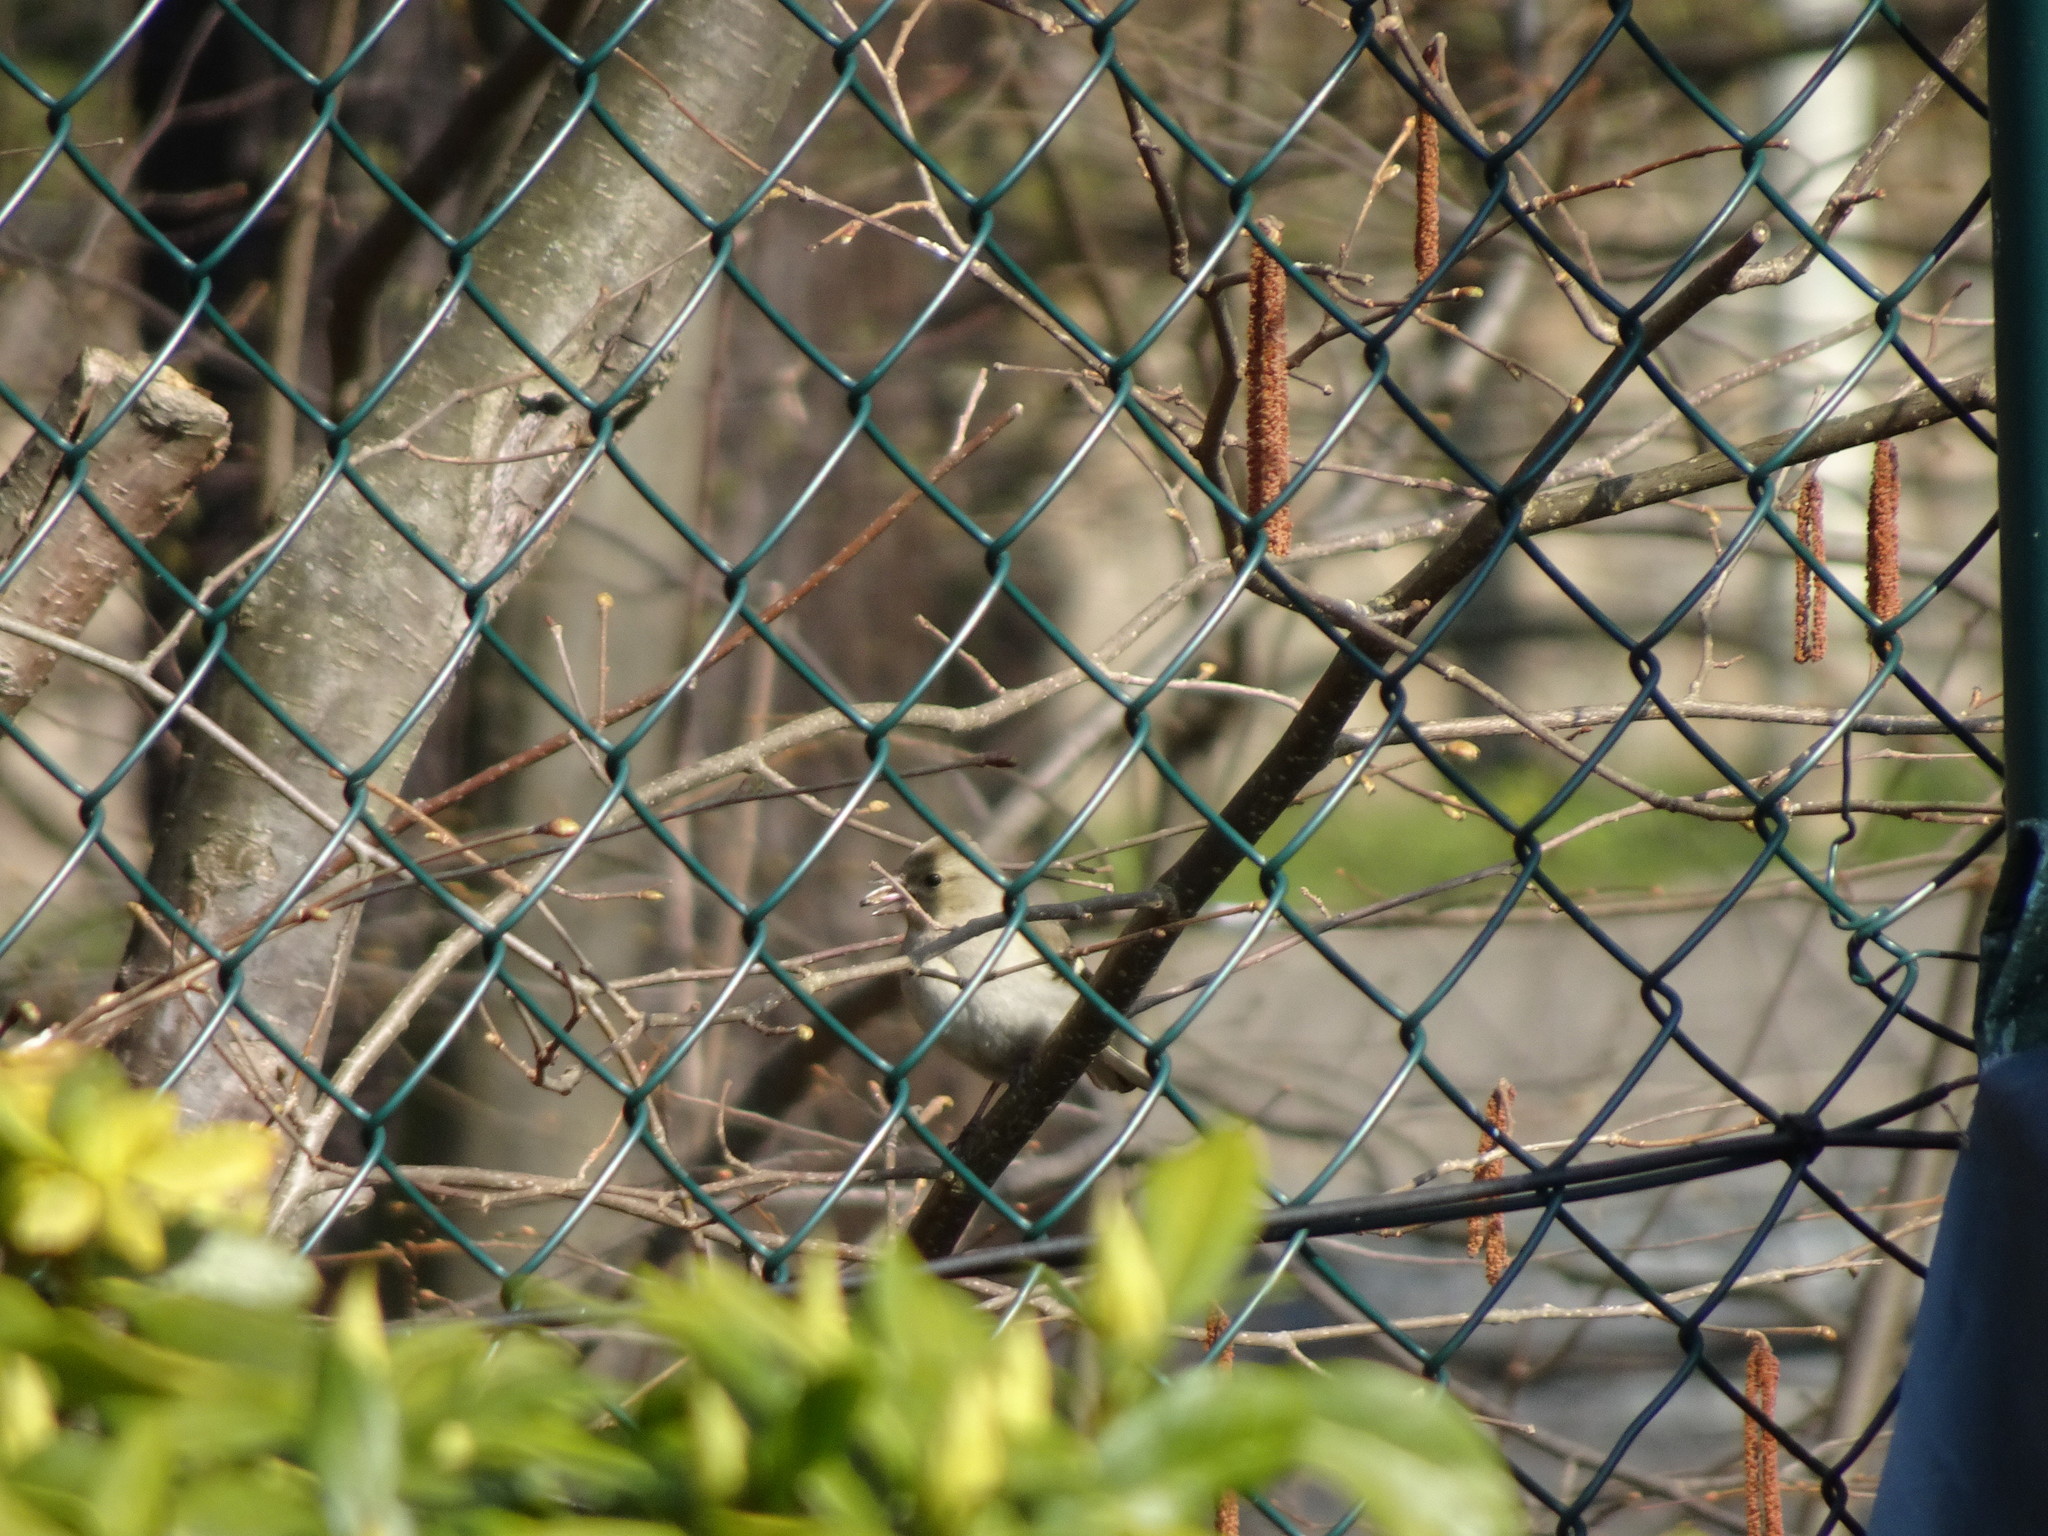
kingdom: Animalia
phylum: Chordata
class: Aves
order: Passeriformes
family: Fringillidae
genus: Fringilla
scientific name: Fringilla coelebs
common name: Common chaffinch
